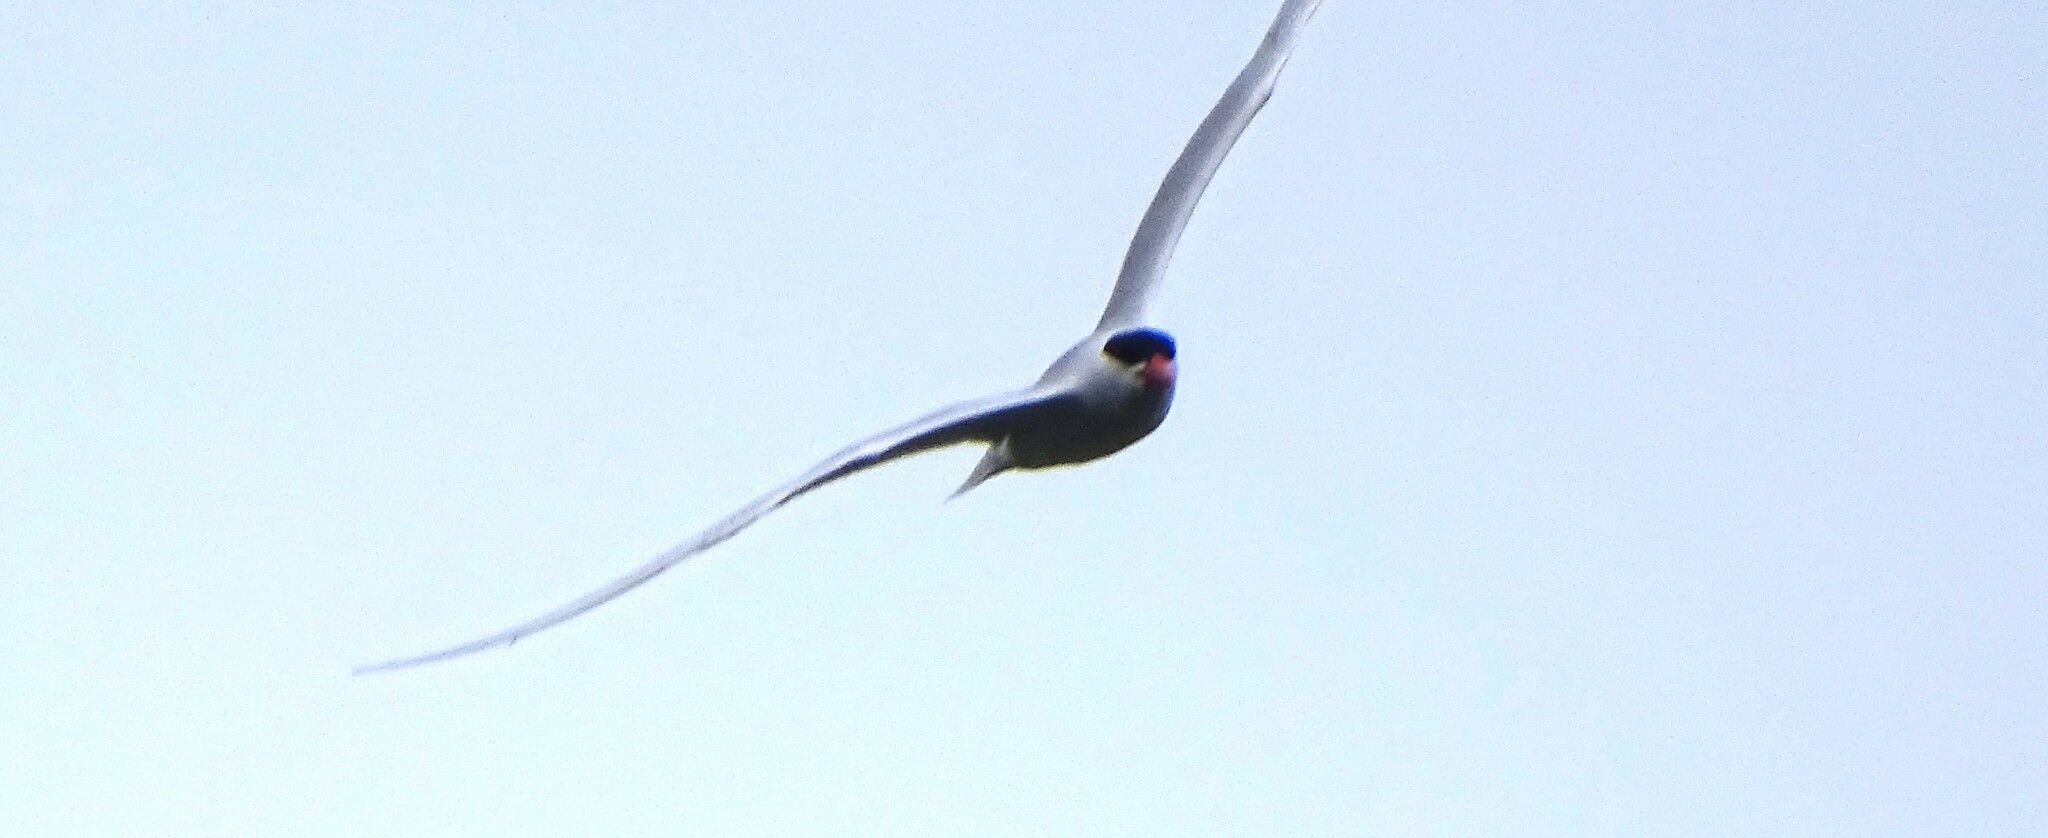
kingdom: Animalia
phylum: Chordata
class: Aves
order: Charadriiformes
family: Laridae
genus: Hydroprogne
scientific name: Hydroprogne caspia
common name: Caspian tern
